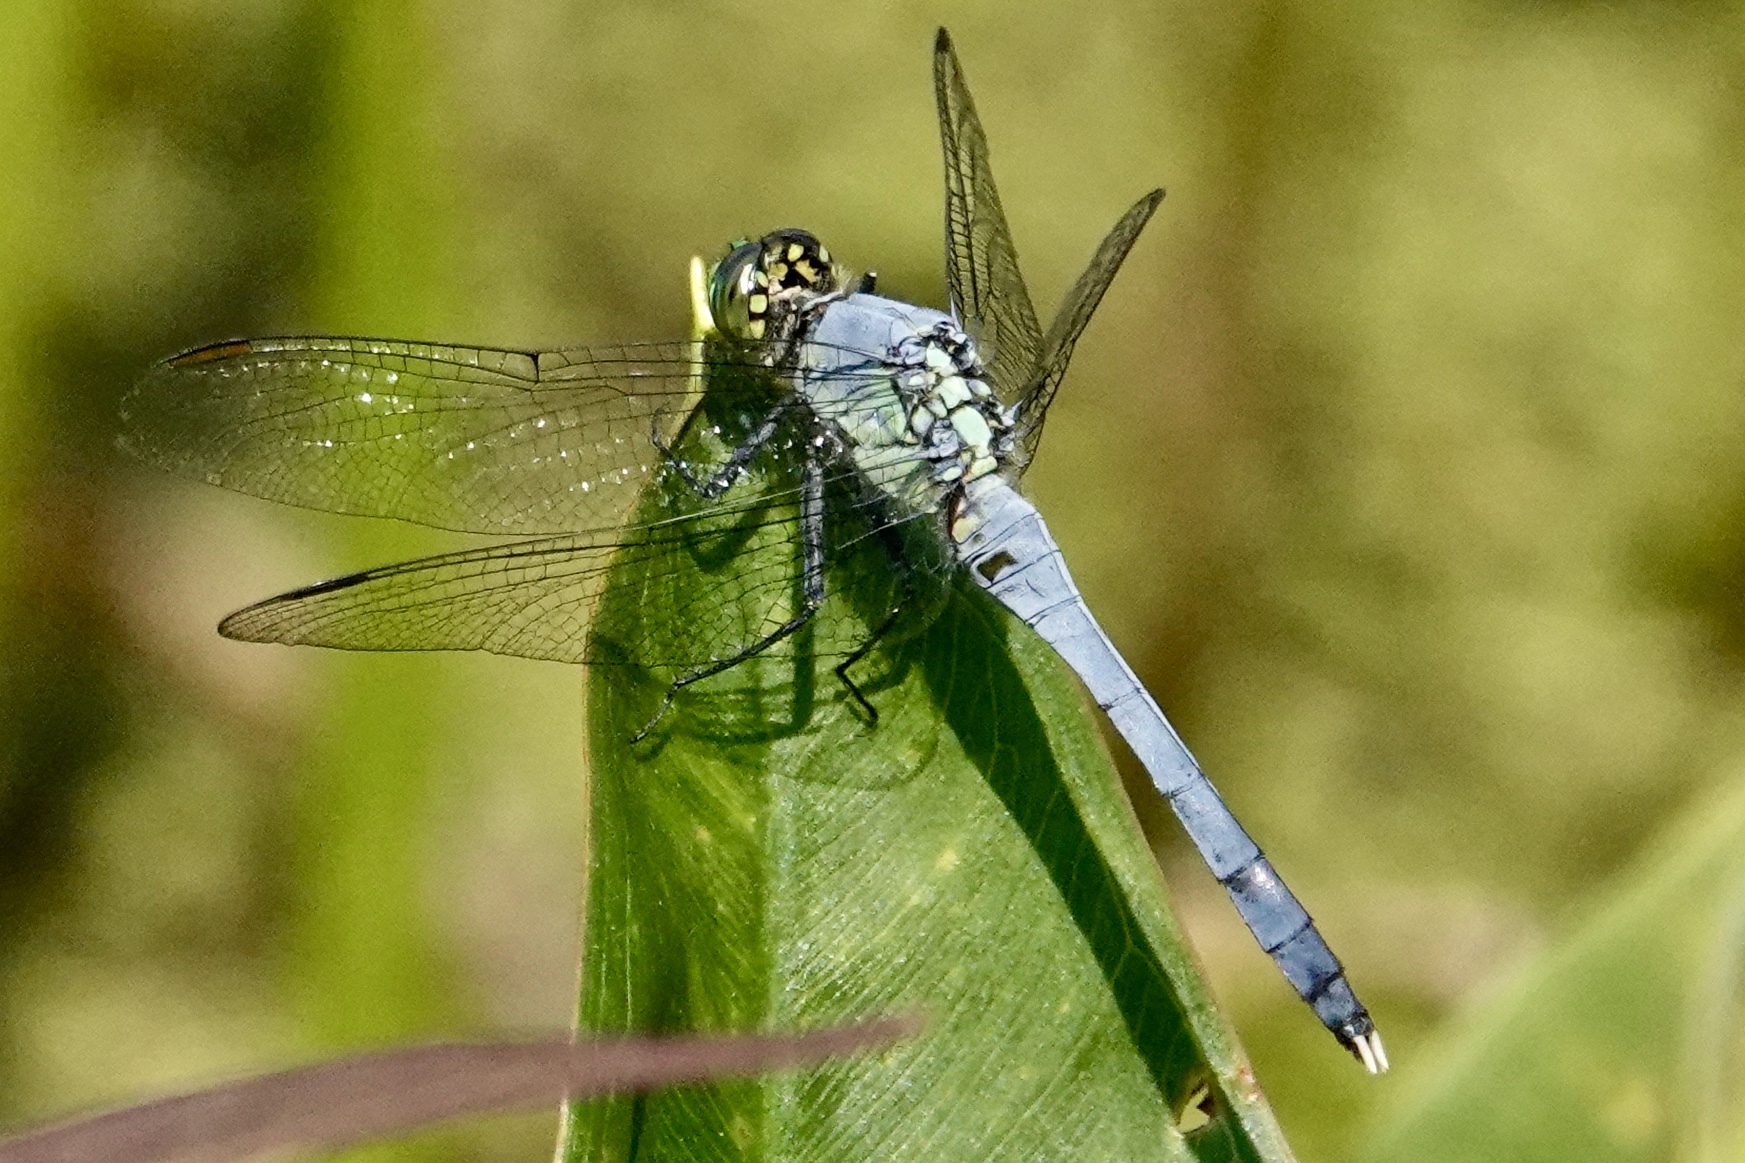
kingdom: Animalia
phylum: Arthropoda
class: Insecta
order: Odonata
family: Libellulidae
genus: Erythemis
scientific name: Erythemis simplicicollis
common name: Eastern pondhawk
